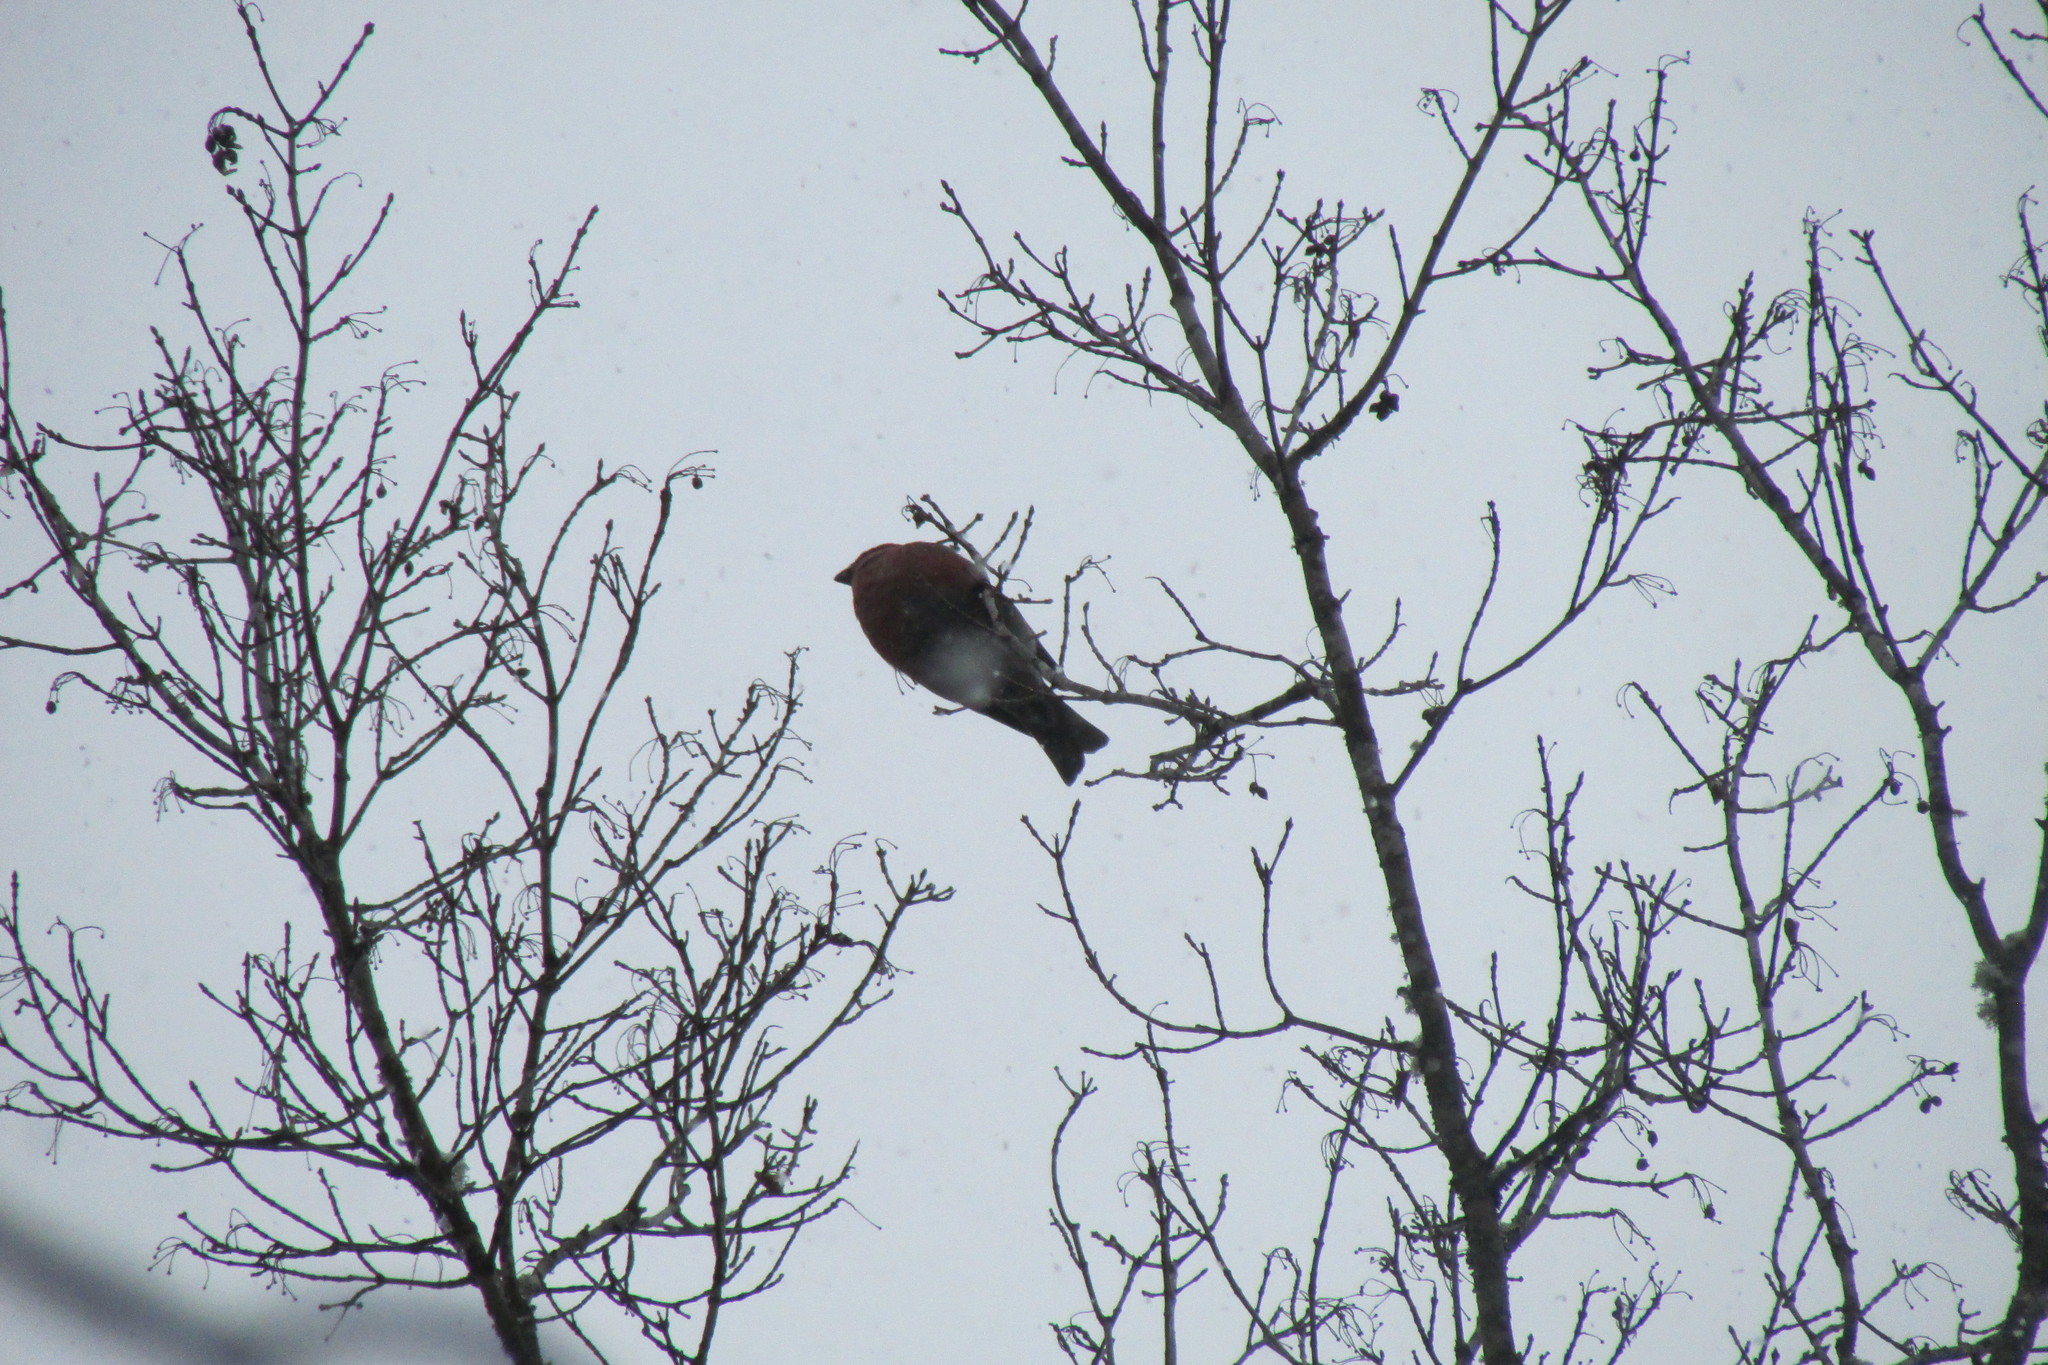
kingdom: Animalia
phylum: Chordata
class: Aves
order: Passeriformes
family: Fringillidae
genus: Pinicola
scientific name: Pinicola enucleator
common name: Pine grosbeak
